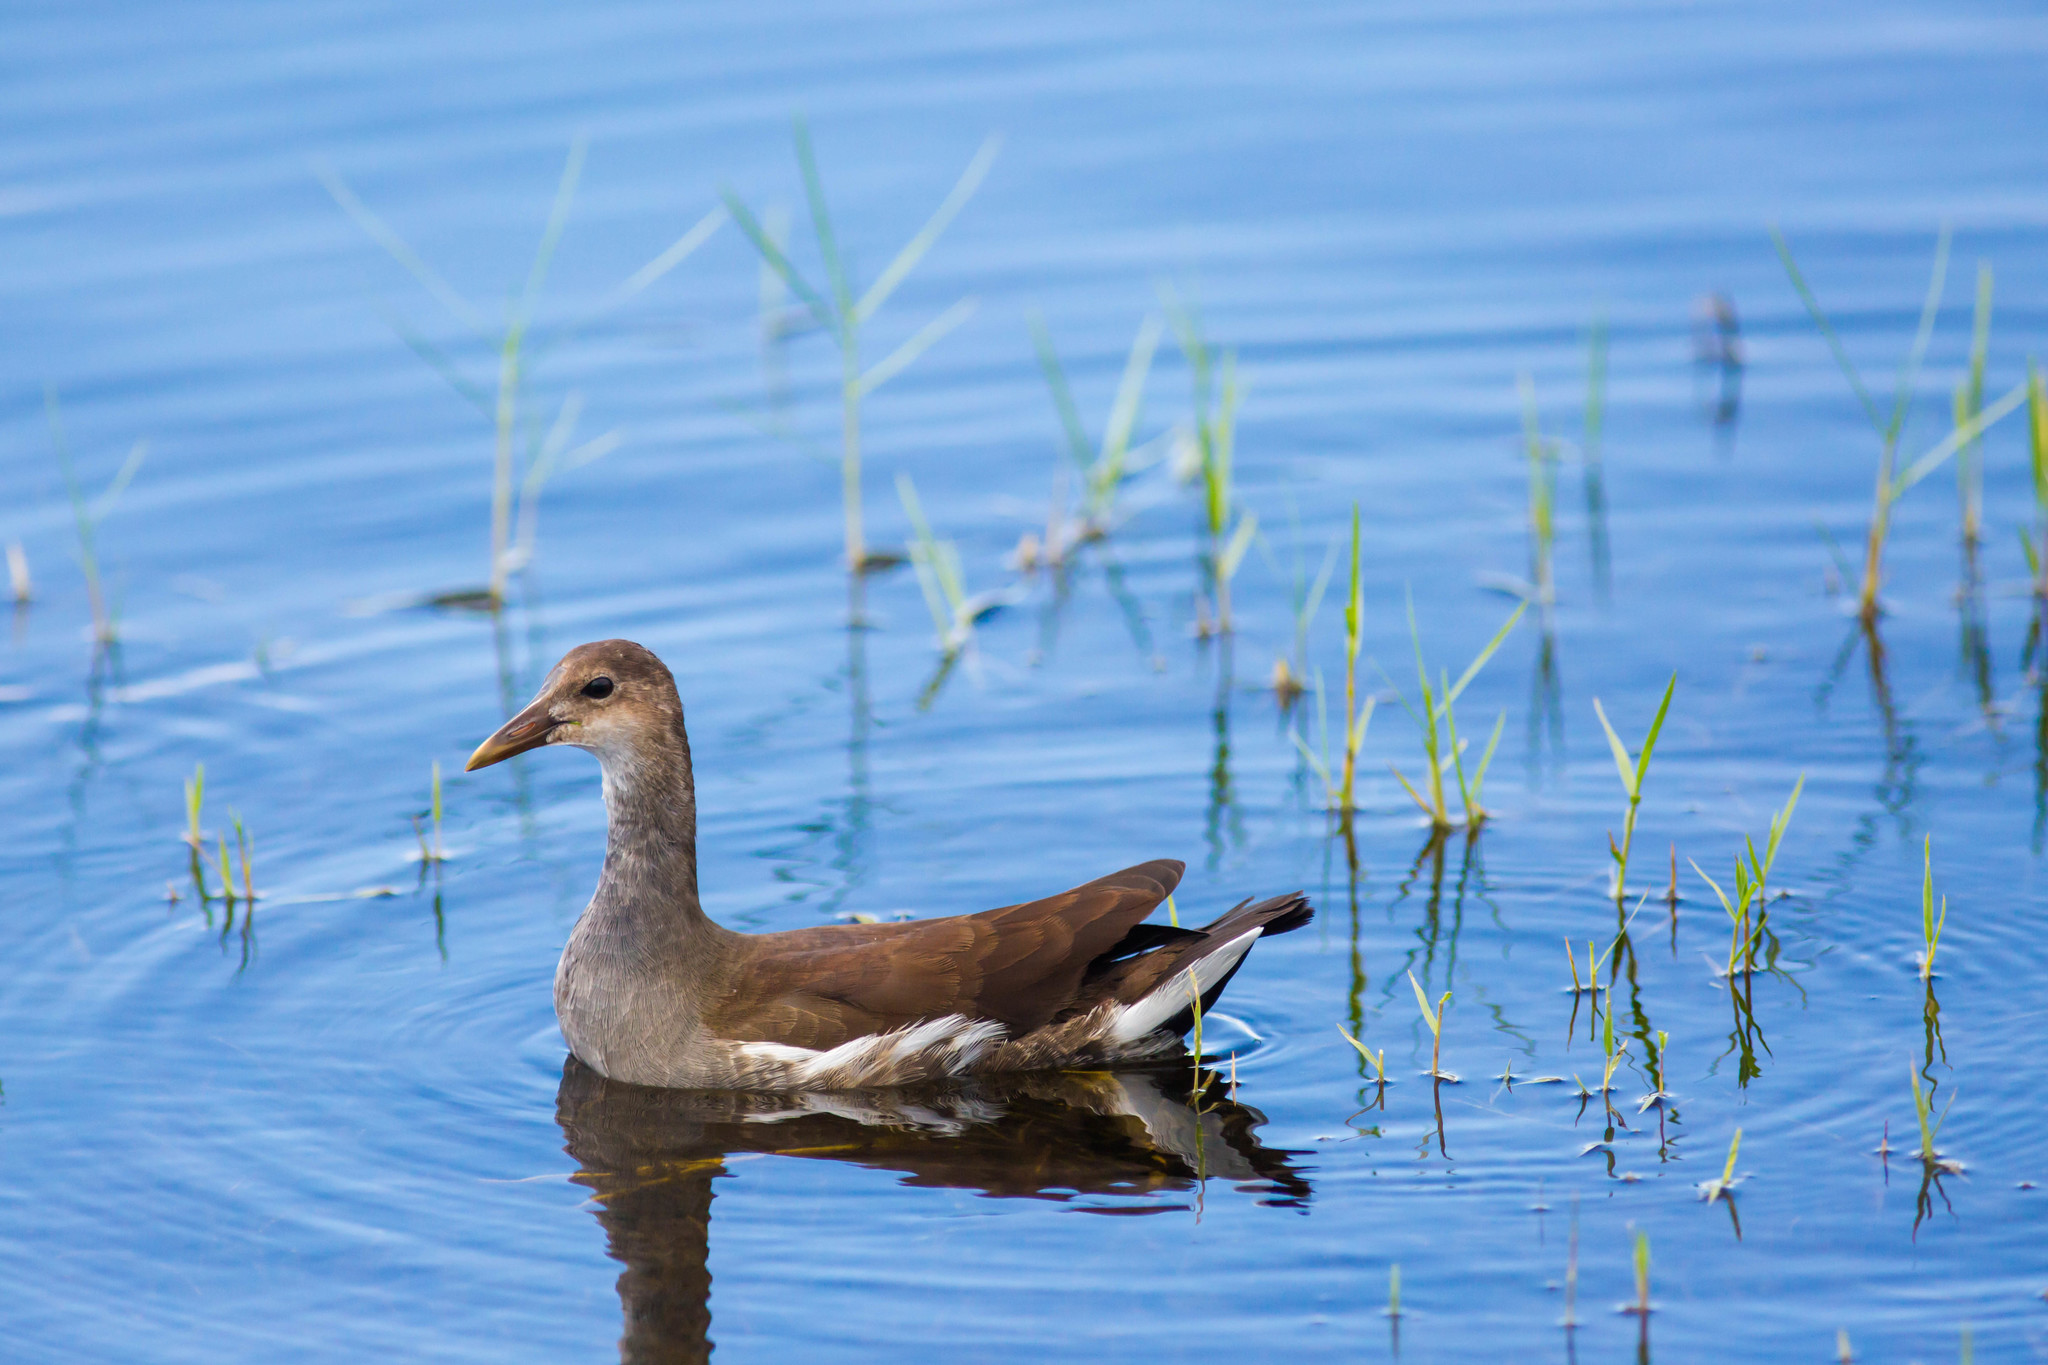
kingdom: Animalia
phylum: Chordata
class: Aves
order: Gruiformes
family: Rallidae
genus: Gallinula
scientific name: Gallinula chloropus
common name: Common moorhen
